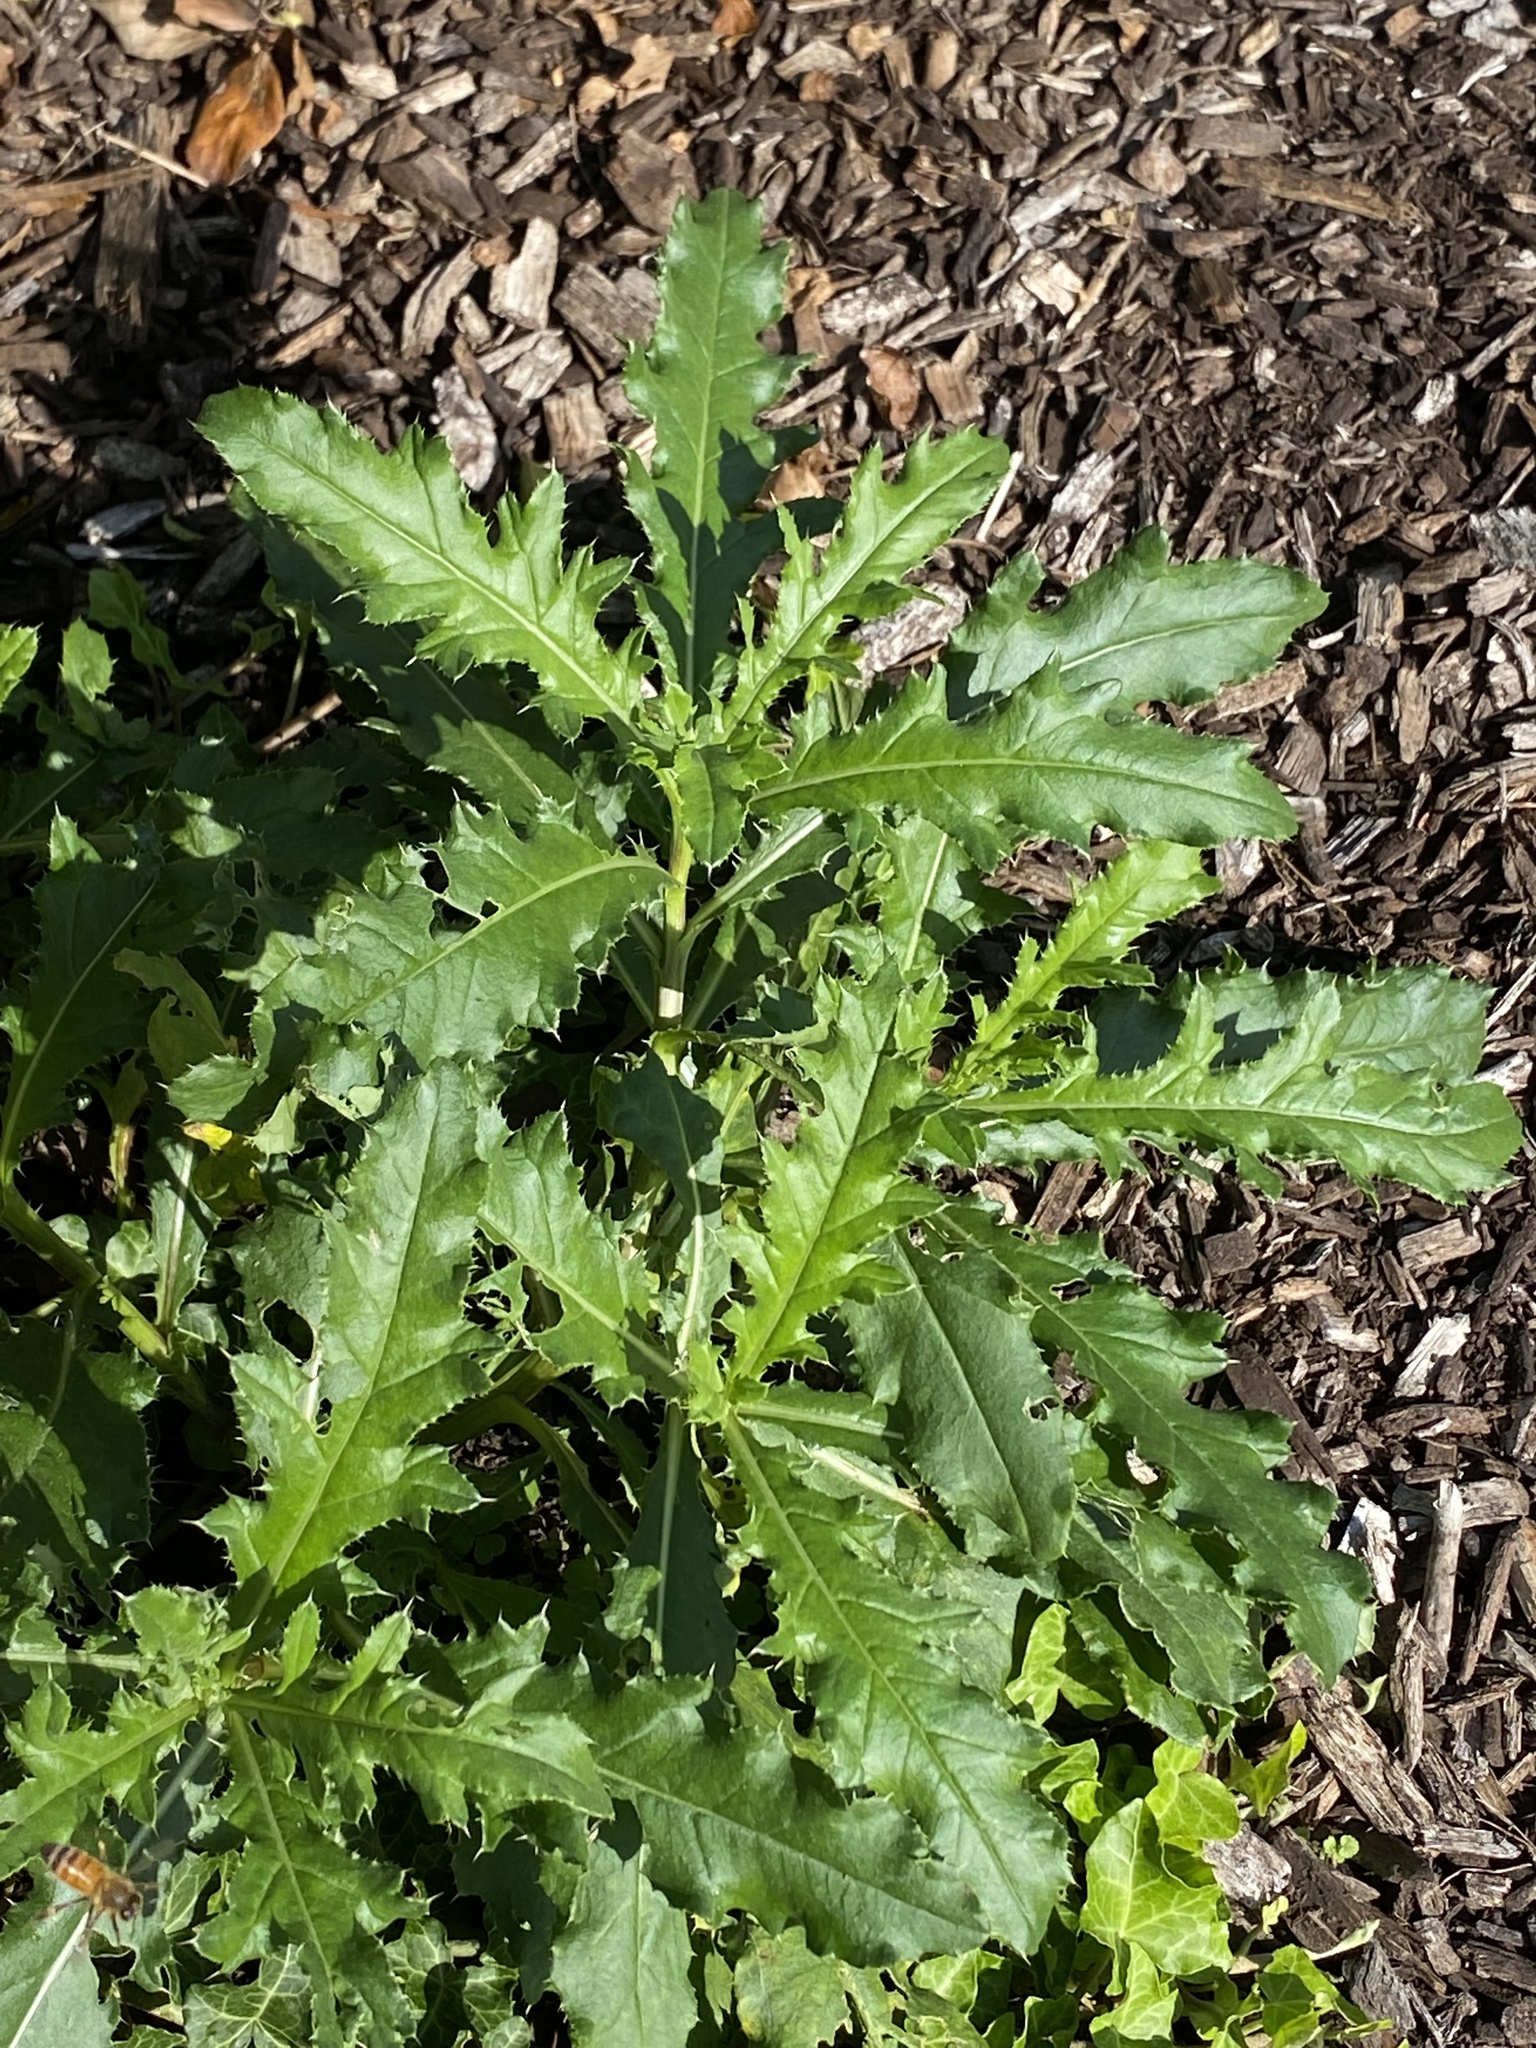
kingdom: Plantae
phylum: Tracheophyta
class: Magnoliopsida
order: Asterales
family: Asteraceae
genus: Cirsium
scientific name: Cirsium arvense
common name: Creeping thistle
